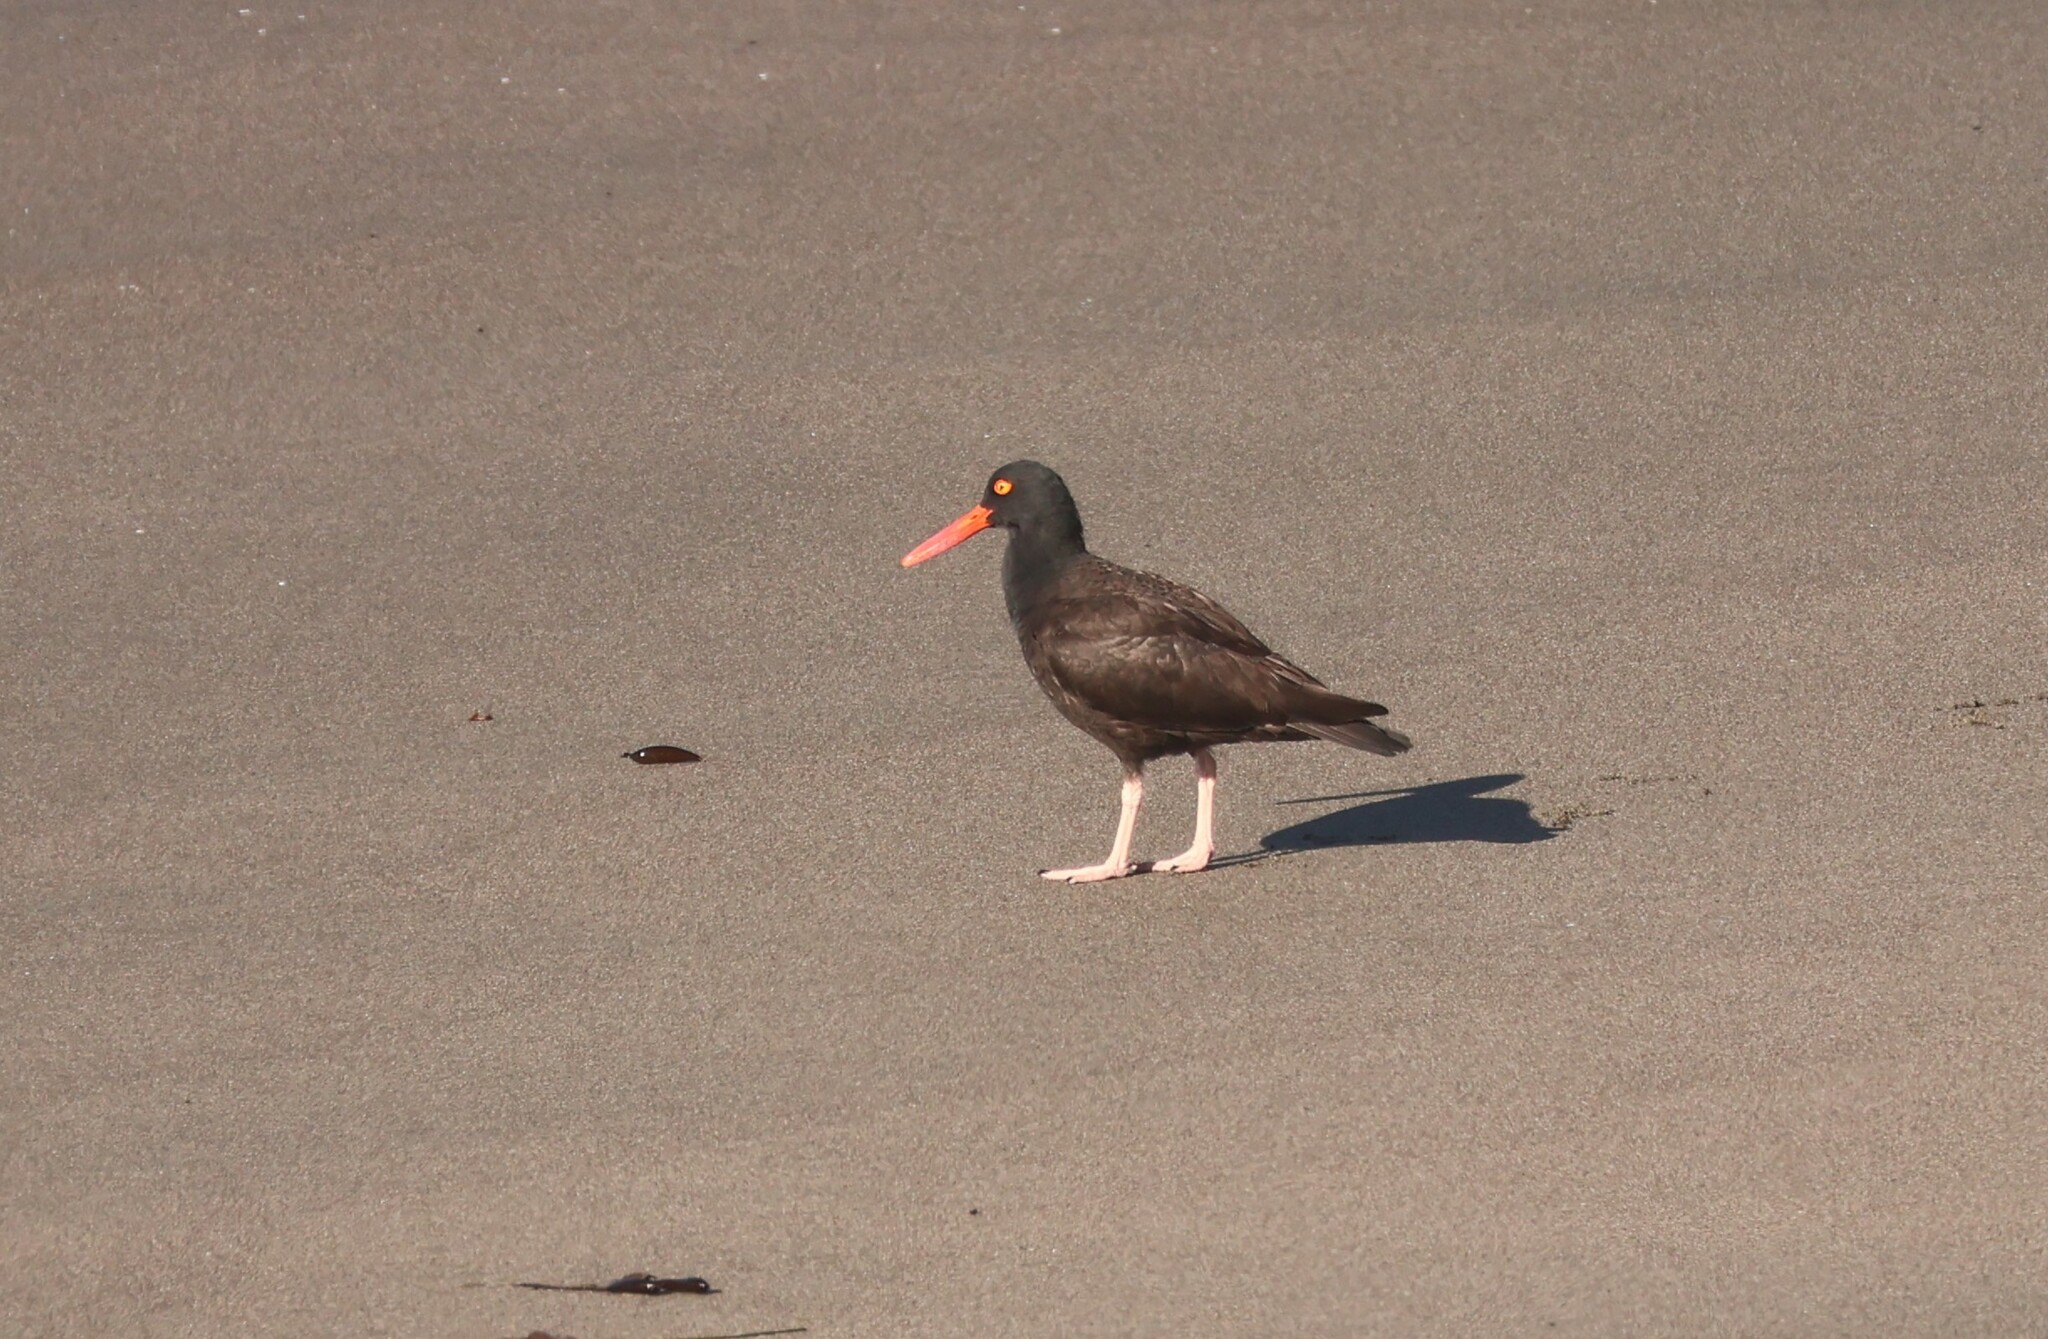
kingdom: Animalia
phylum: Chordata
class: Aves
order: Charadriiformes
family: Haematopodidae
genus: Haematopus
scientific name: Haematopus bachmani
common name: Black oystercatcher
